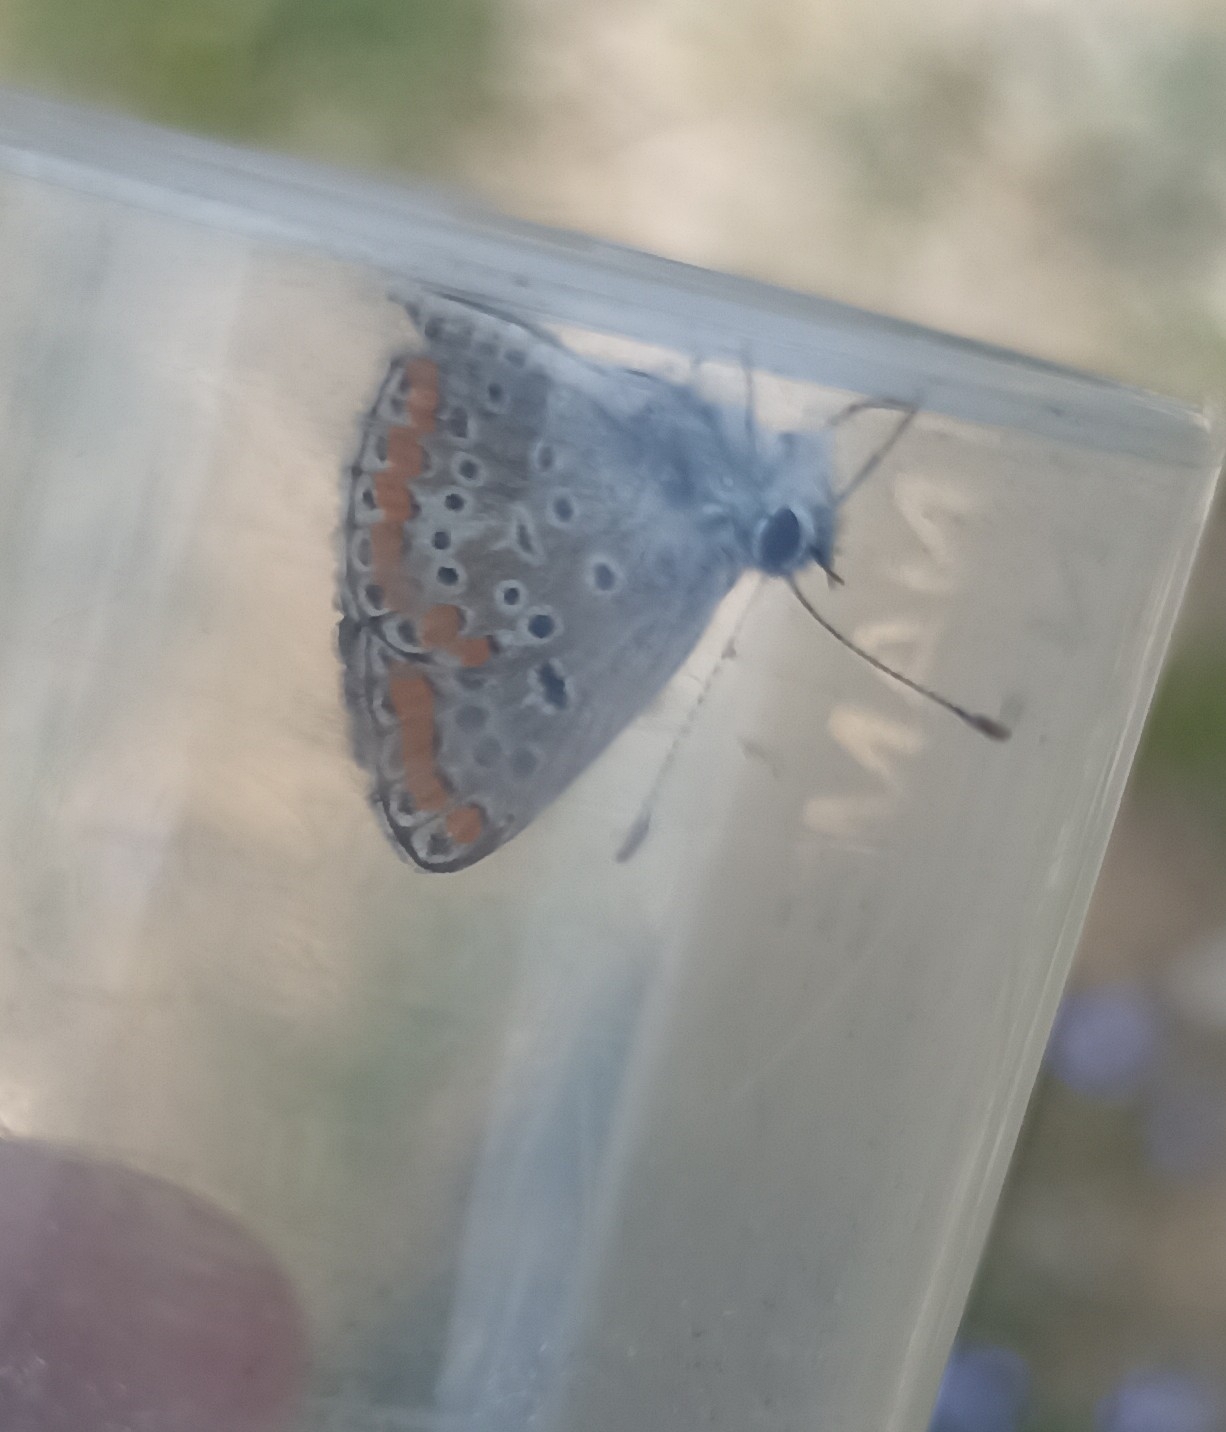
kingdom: Animalia
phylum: Arthropoda
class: Insecta
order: Lepidoptera
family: Lycaenidae
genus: Aricia
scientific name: Aricia agestis
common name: Brown argus
